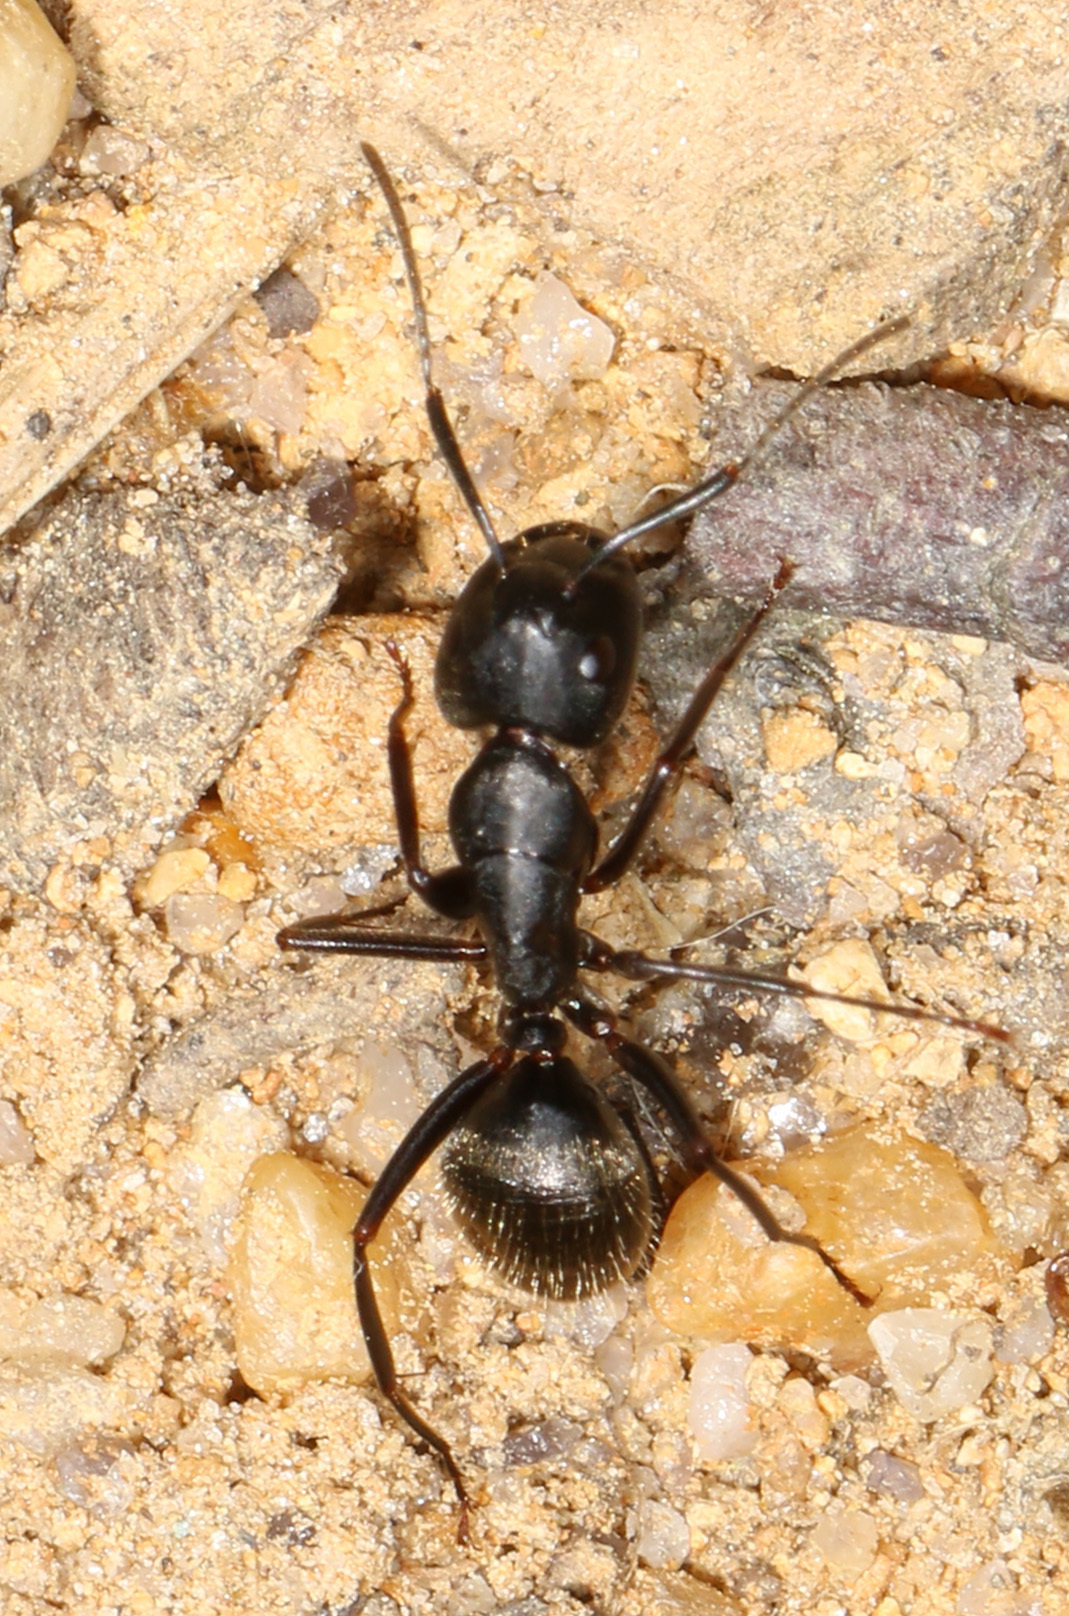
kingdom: Animalia
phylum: Arthropoda
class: Insecta
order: Hymenoptera
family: Formicidae
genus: Camponotus
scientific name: Camponotus pennsylvanicus
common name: Black carpenter ant
